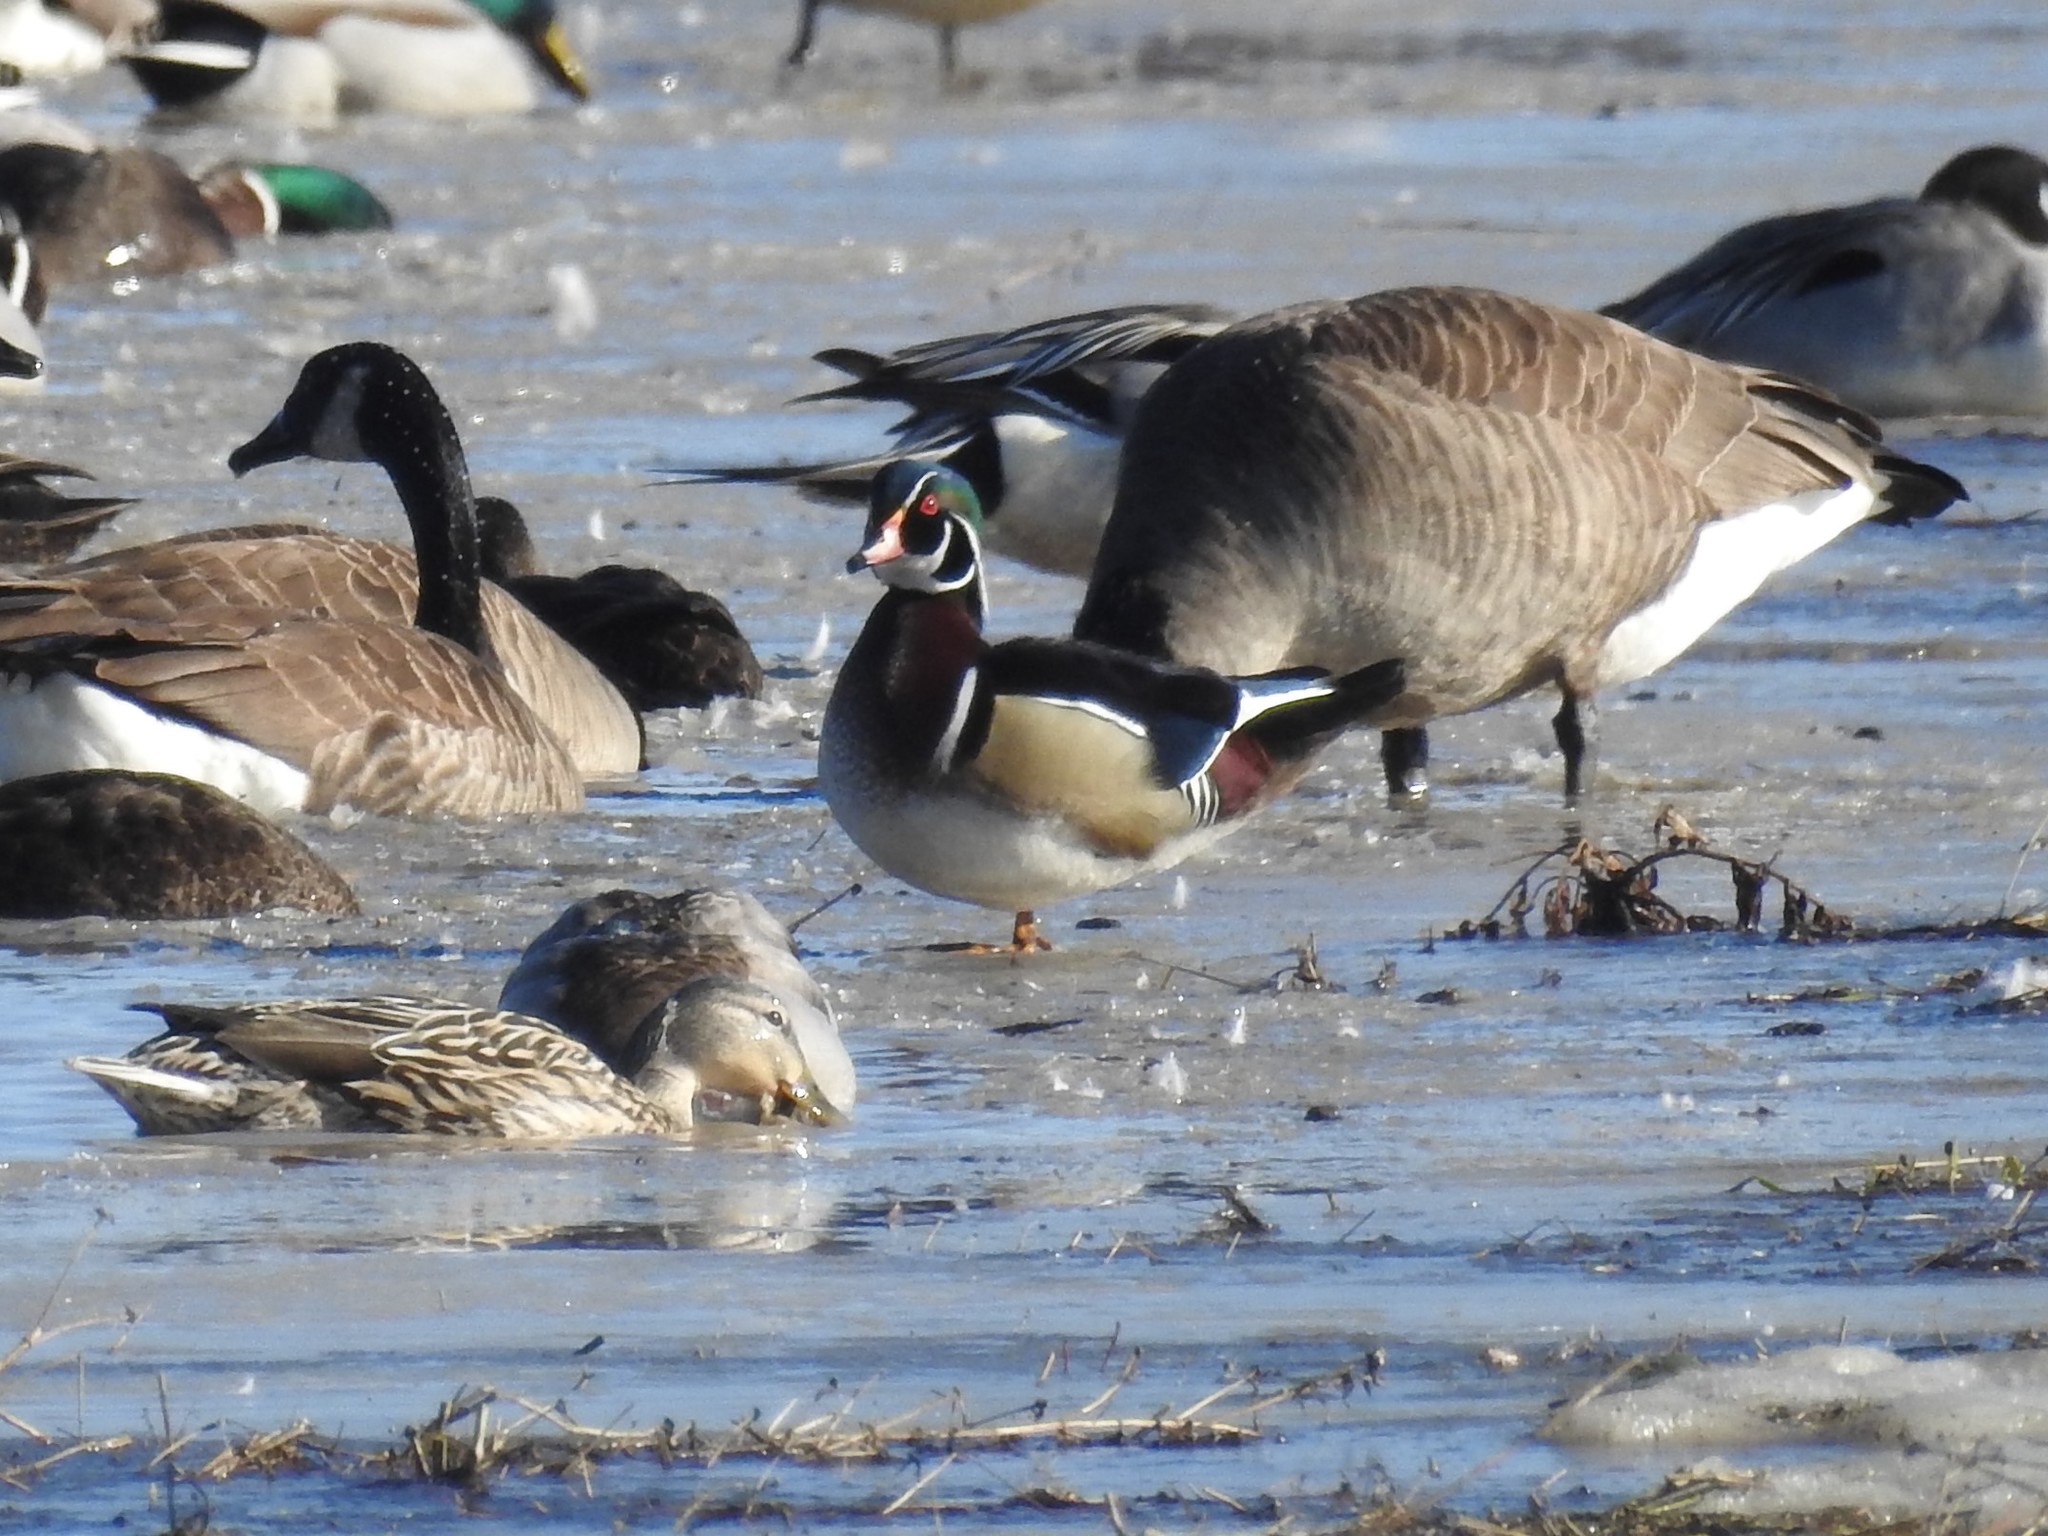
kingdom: Animalia
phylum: Chordata
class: Aves
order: Anseriformes
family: Anatidae
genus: Aix
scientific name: Aix sponsa
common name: Wood duck
